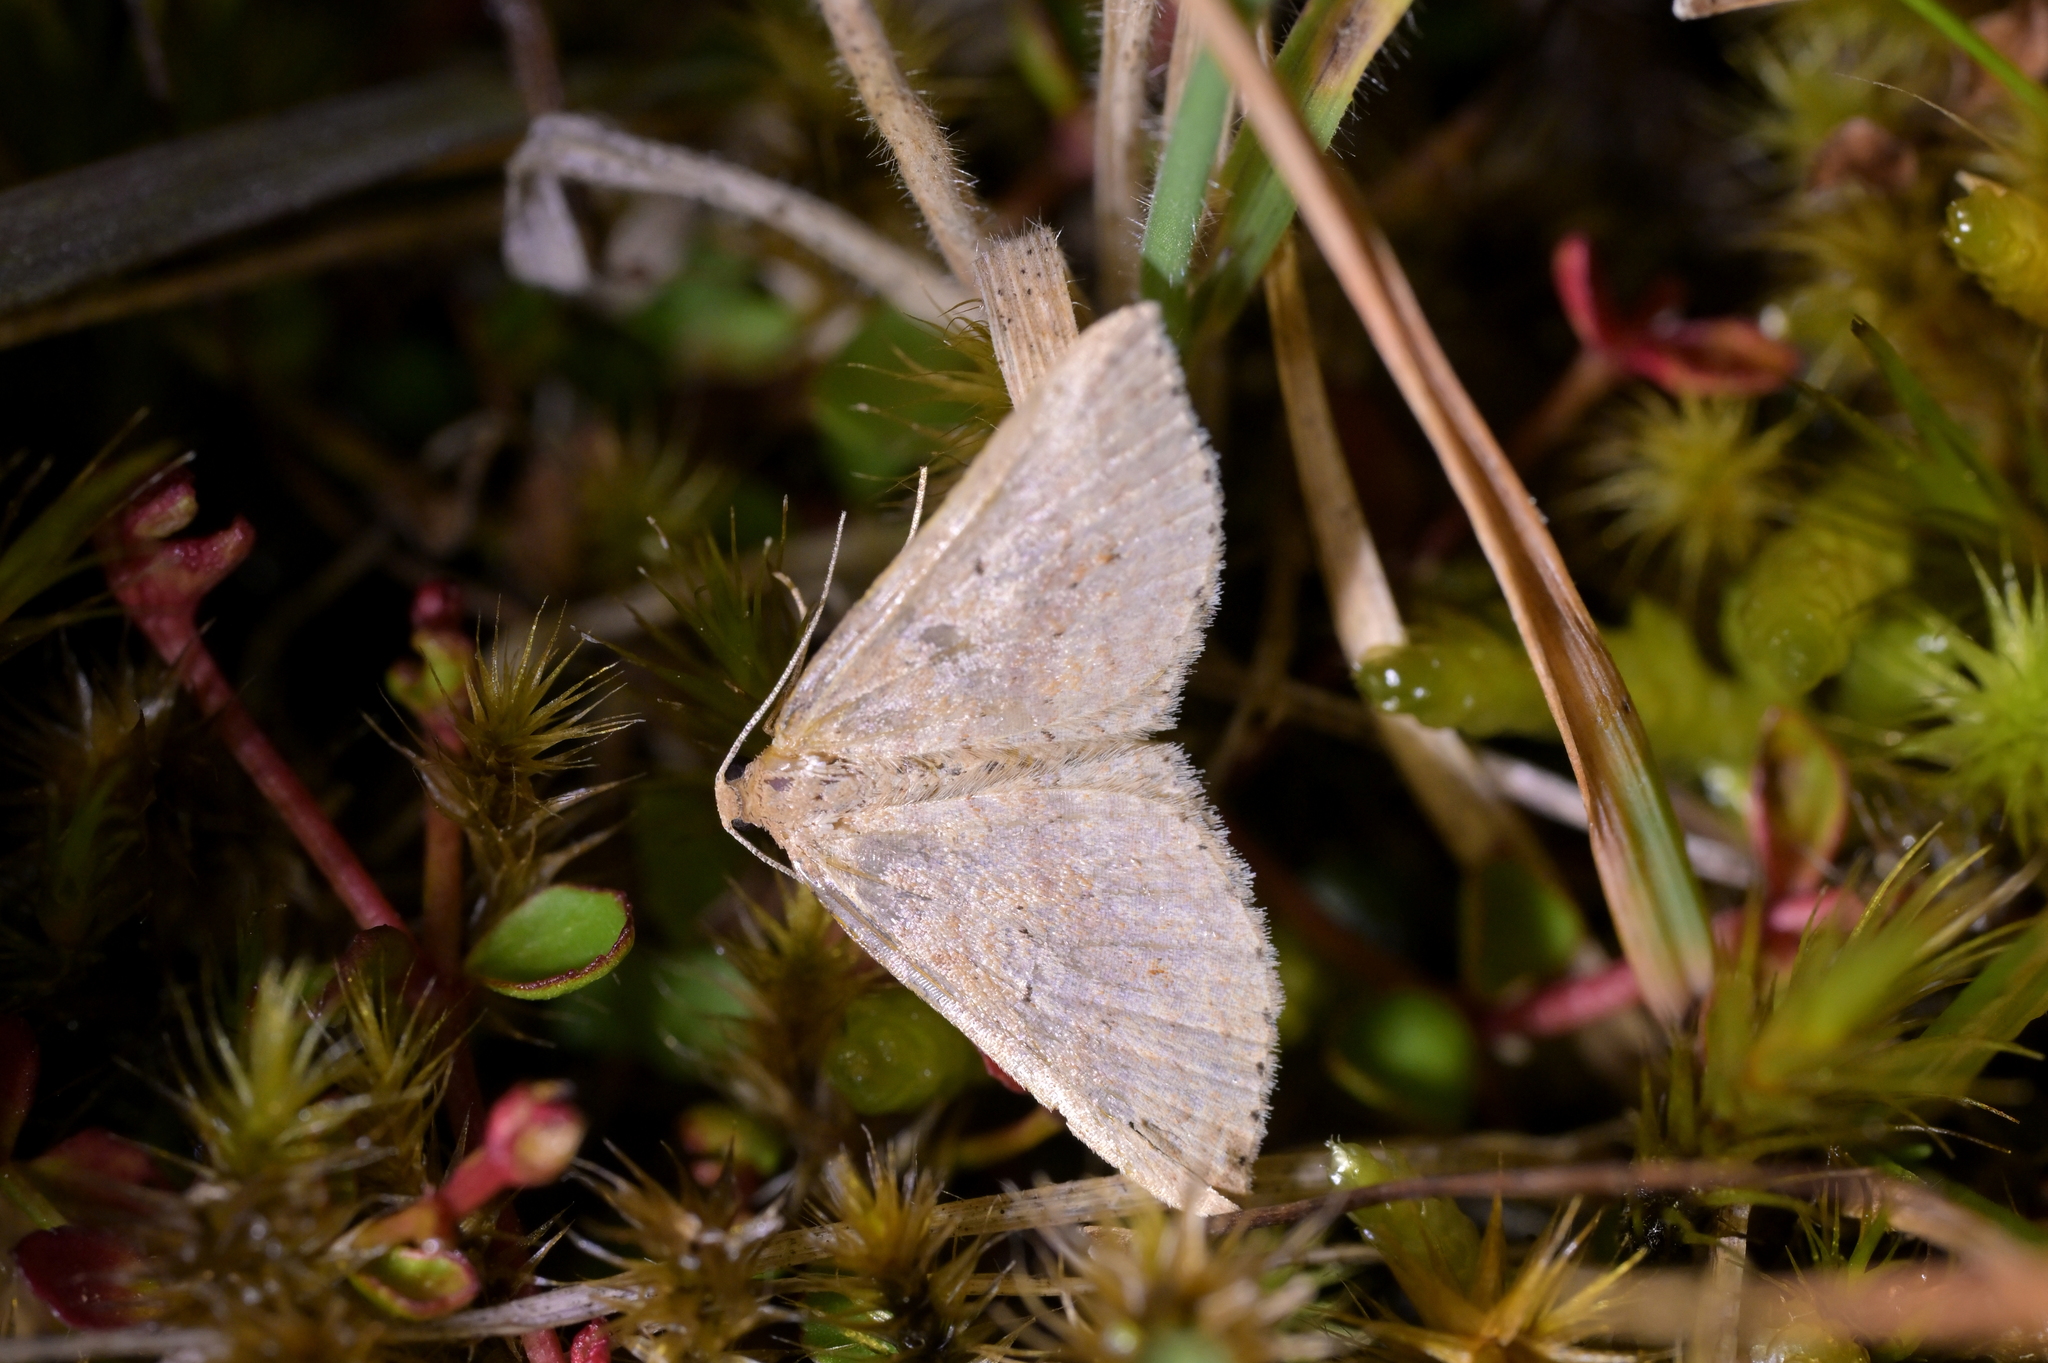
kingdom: Animalia
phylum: Arthropoda
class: Insecta
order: Lepidoptera
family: Geometridae
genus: Epicyme
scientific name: Epicyme rubropunctaria
